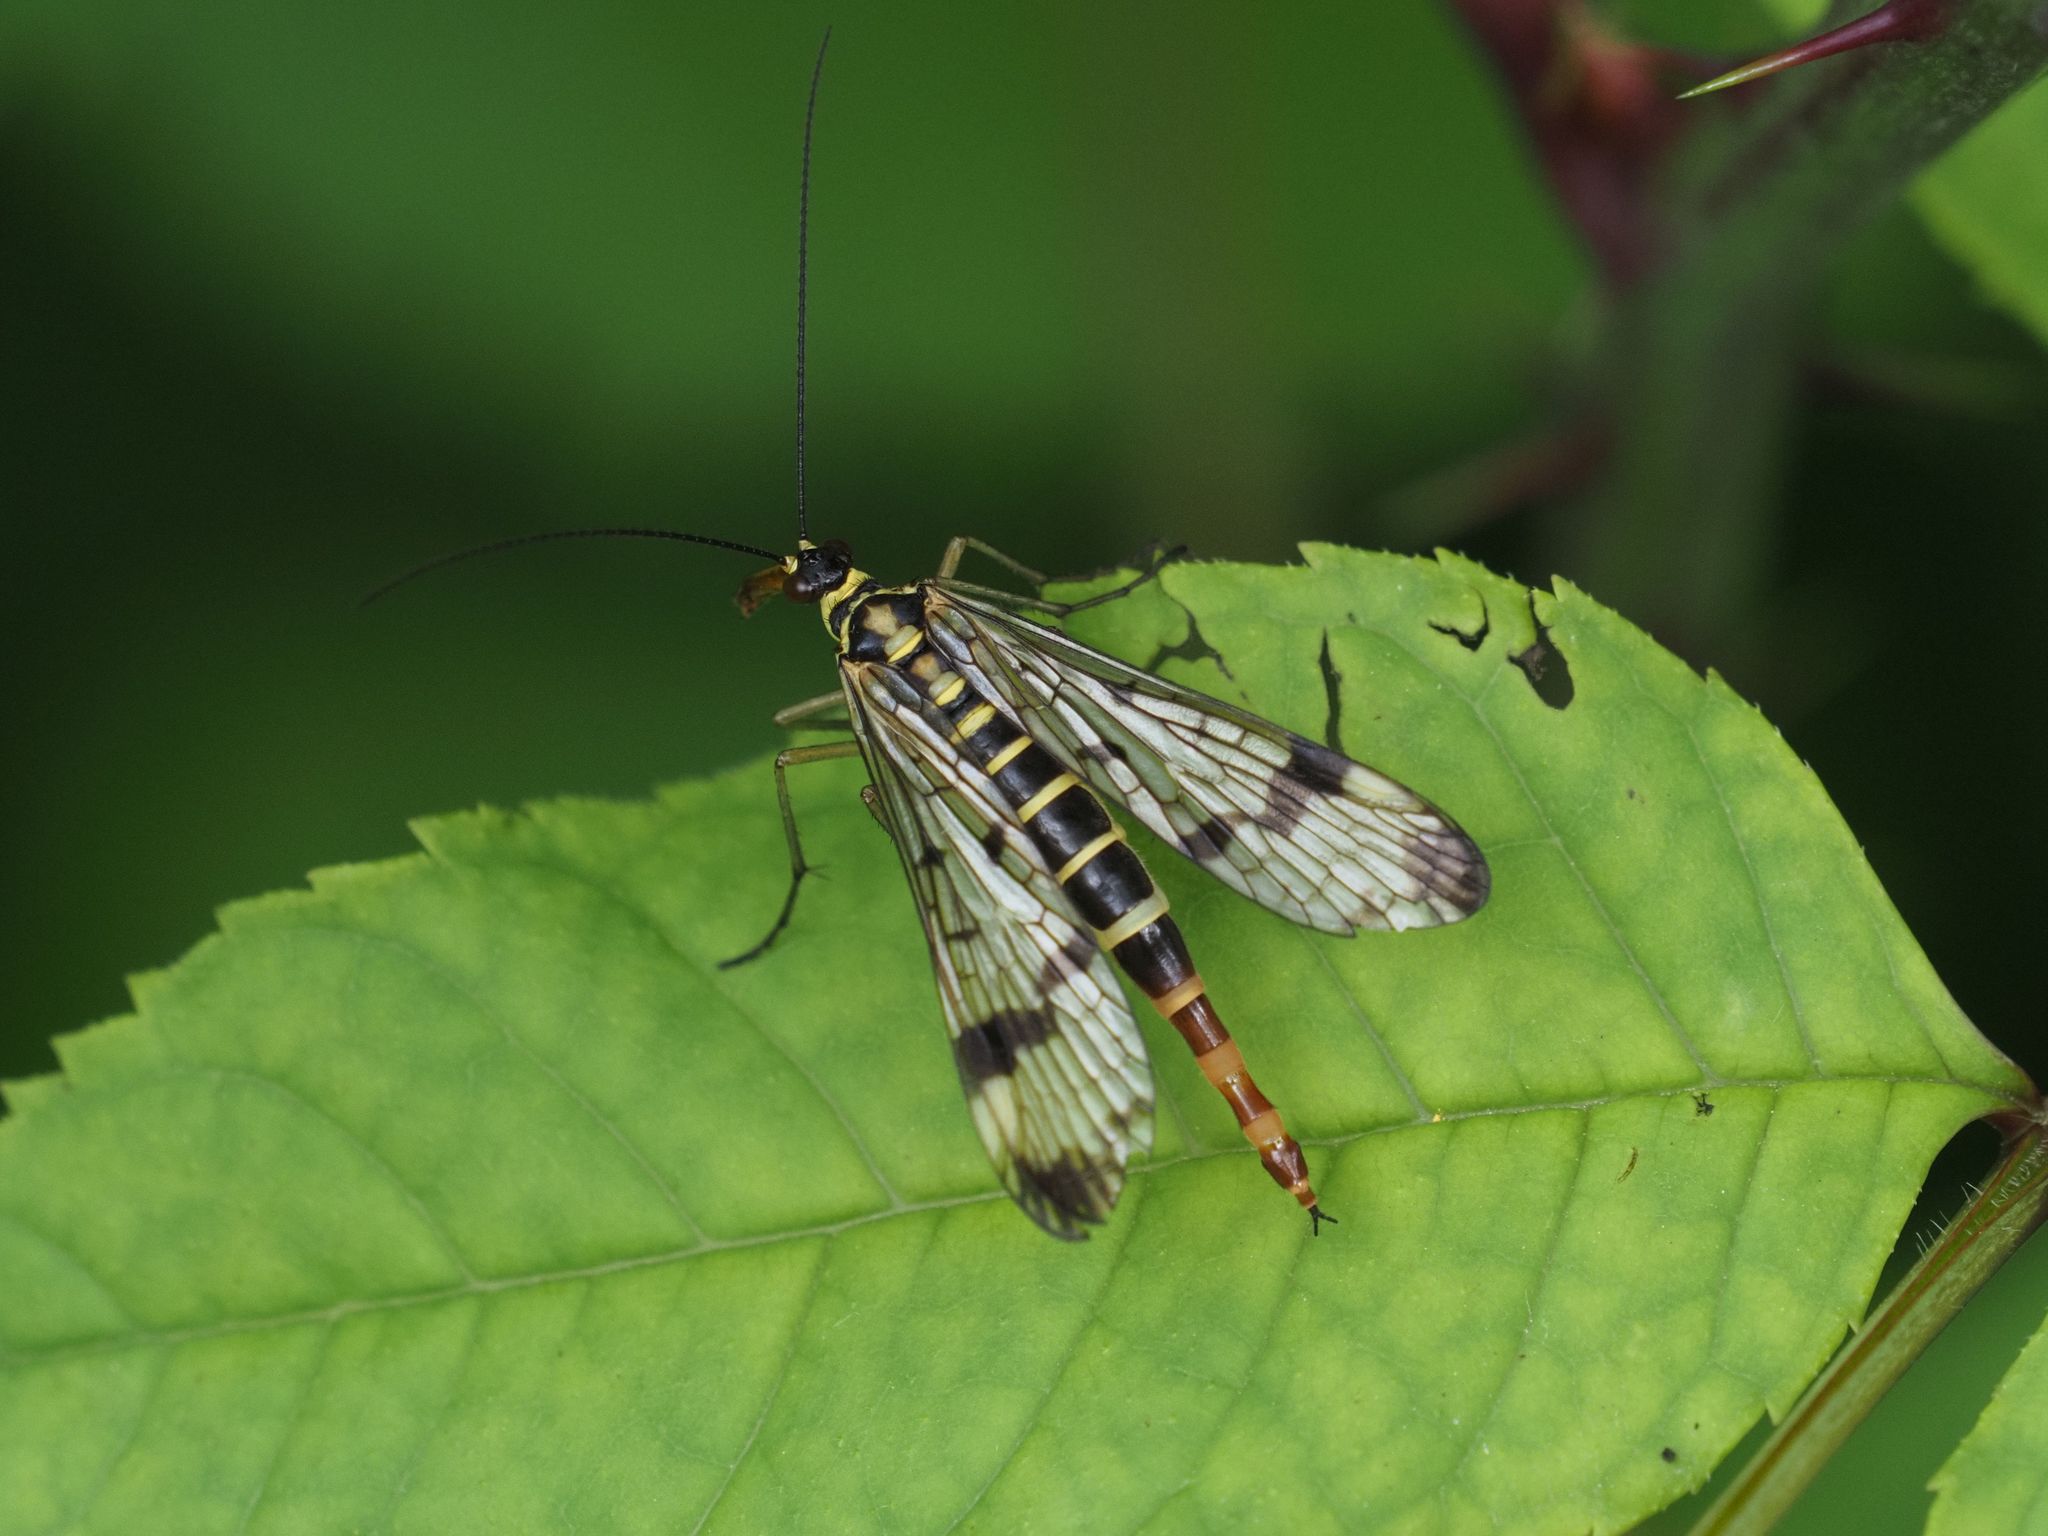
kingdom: Animalia
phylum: Arthropoda
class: Insecta
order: Mecoptera
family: Panorpidae
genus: Panorpa
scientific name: Panorpa communis
